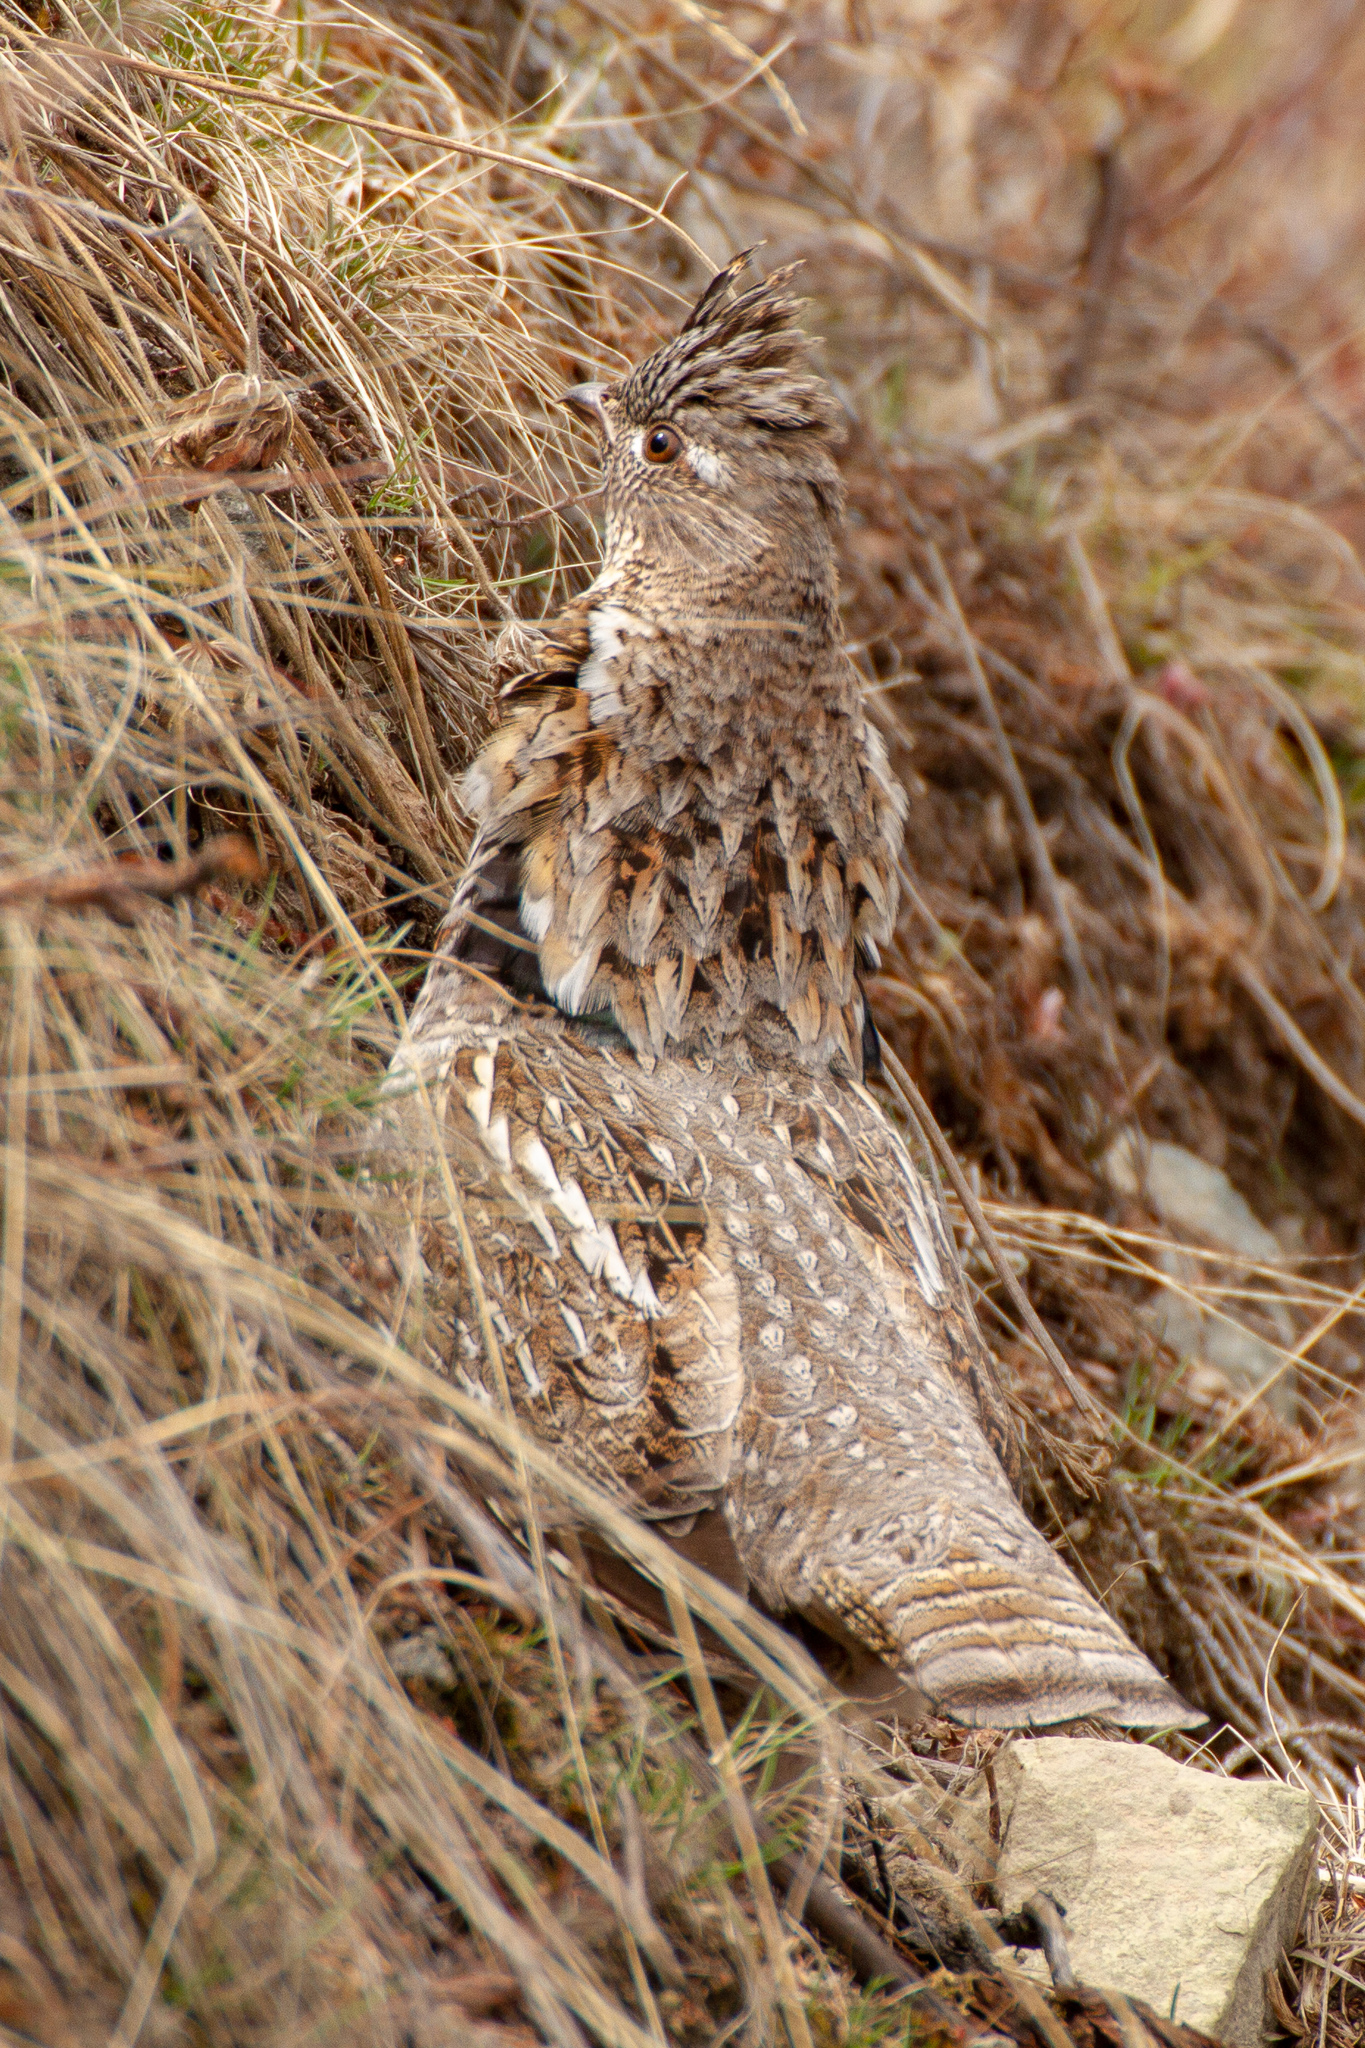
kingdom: Animalia
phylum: Chordata
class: Aves
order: Galliformes
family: Phasianidae
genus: Bonasa
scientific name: Bonasa umbellus
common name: Ruffed grouse
